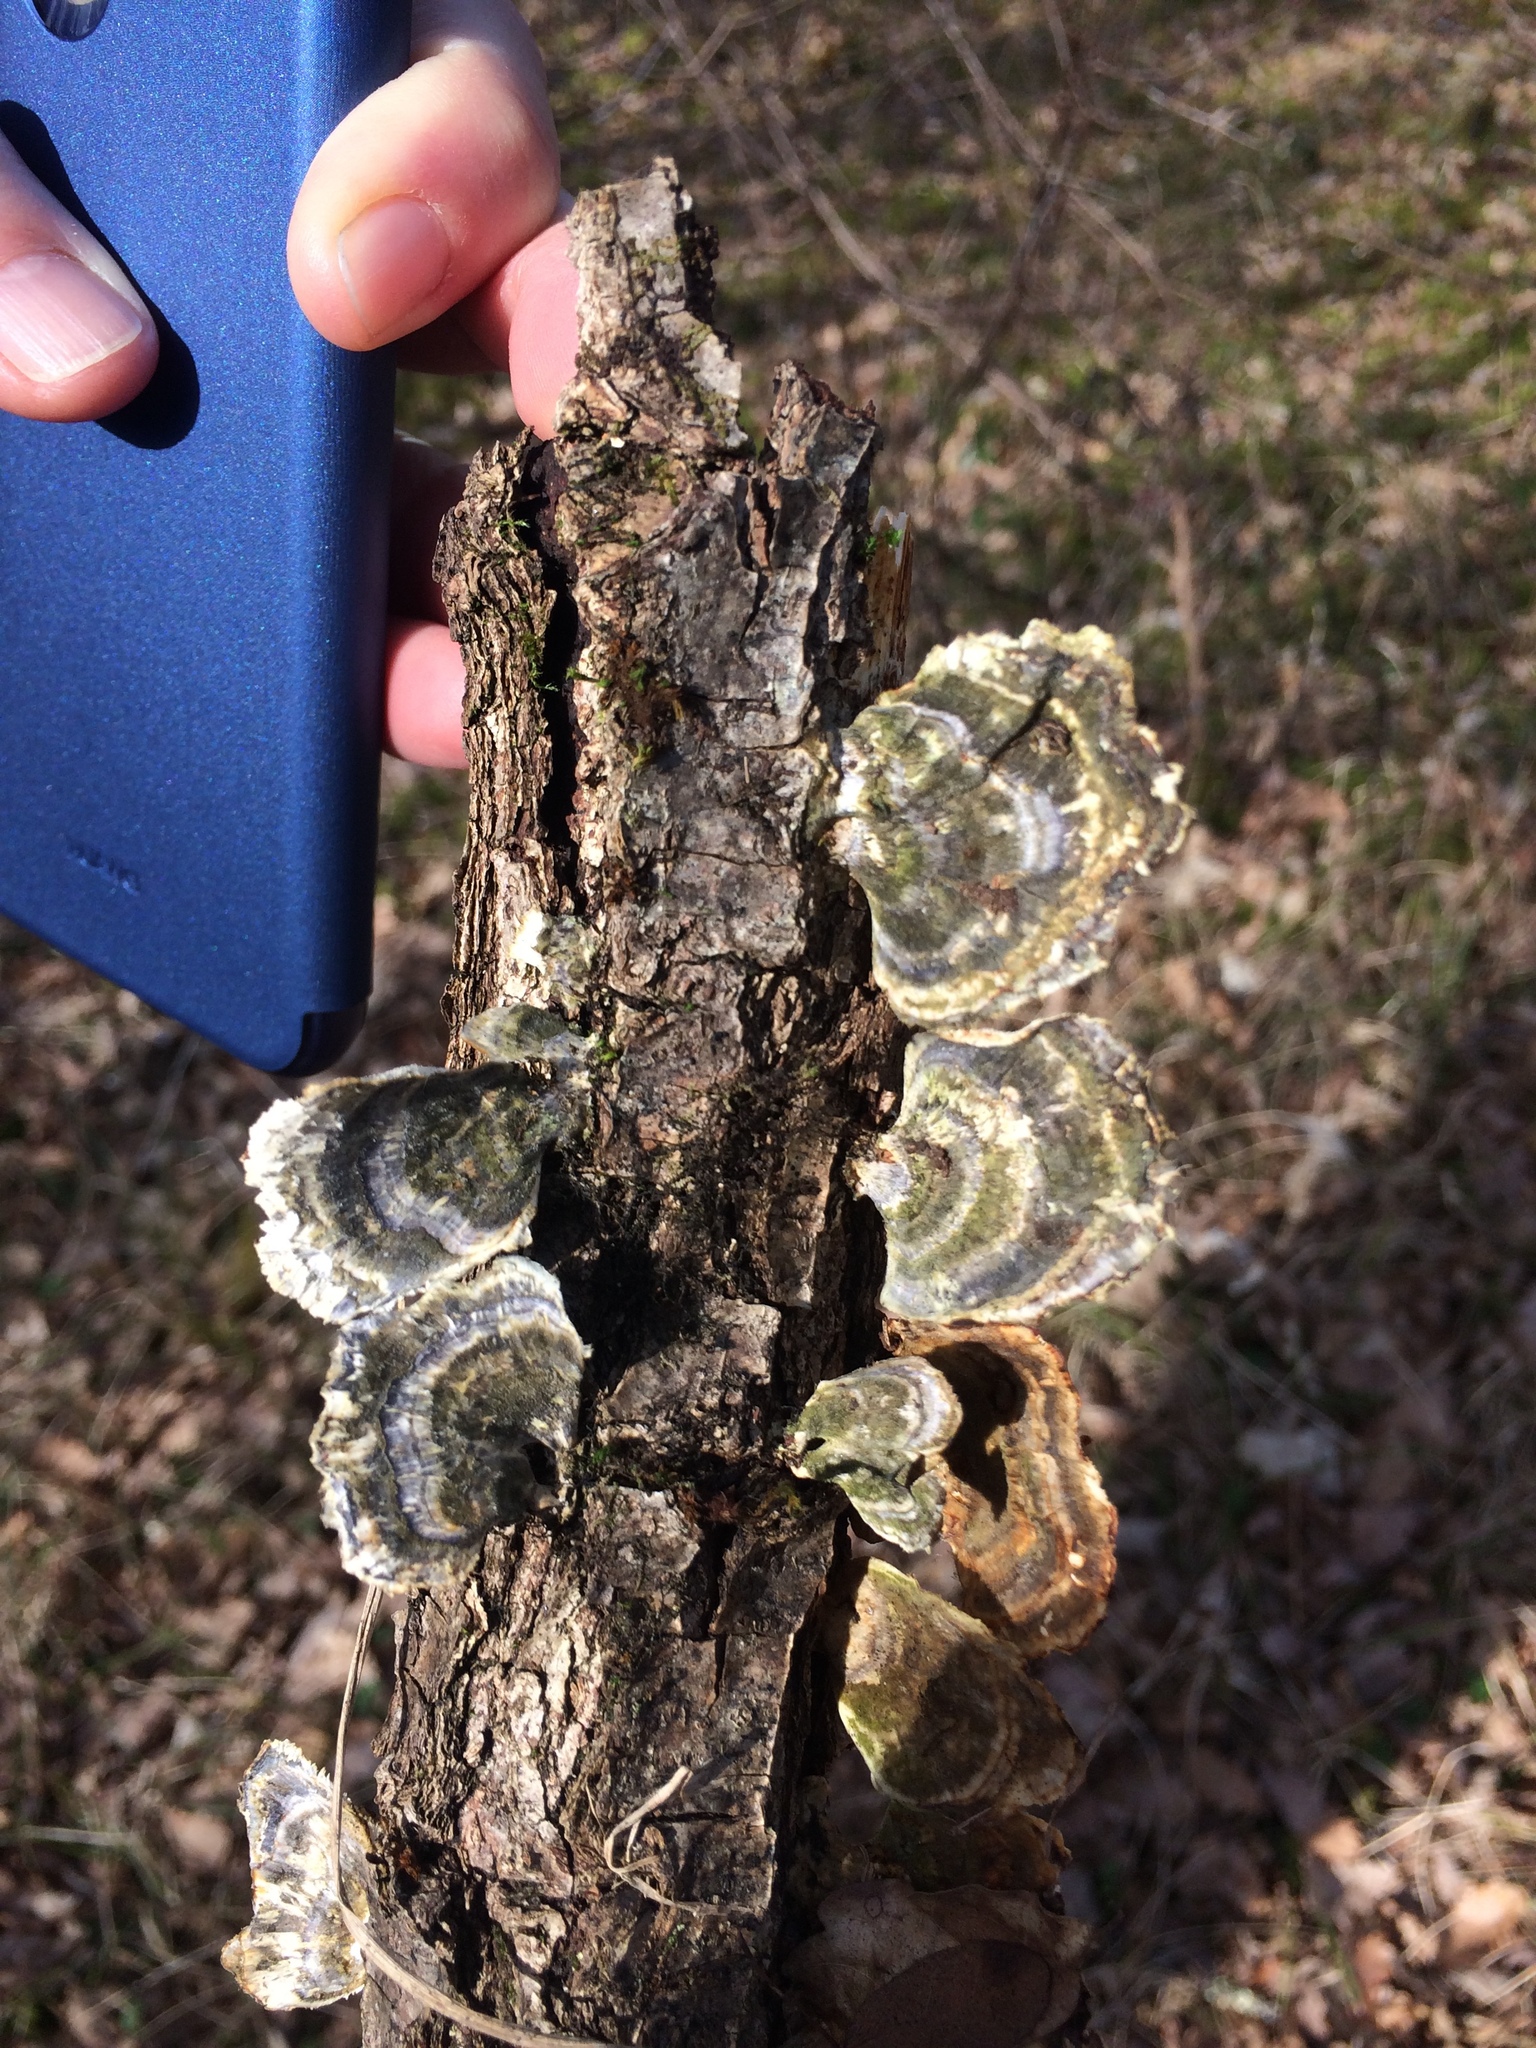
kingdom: Fungi
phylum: Basidiomycota
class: Agaricomycetes
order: Polyporales
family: Polyporaceae
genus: Trametes
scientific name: Trametes versicolor
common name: Turkeytail
